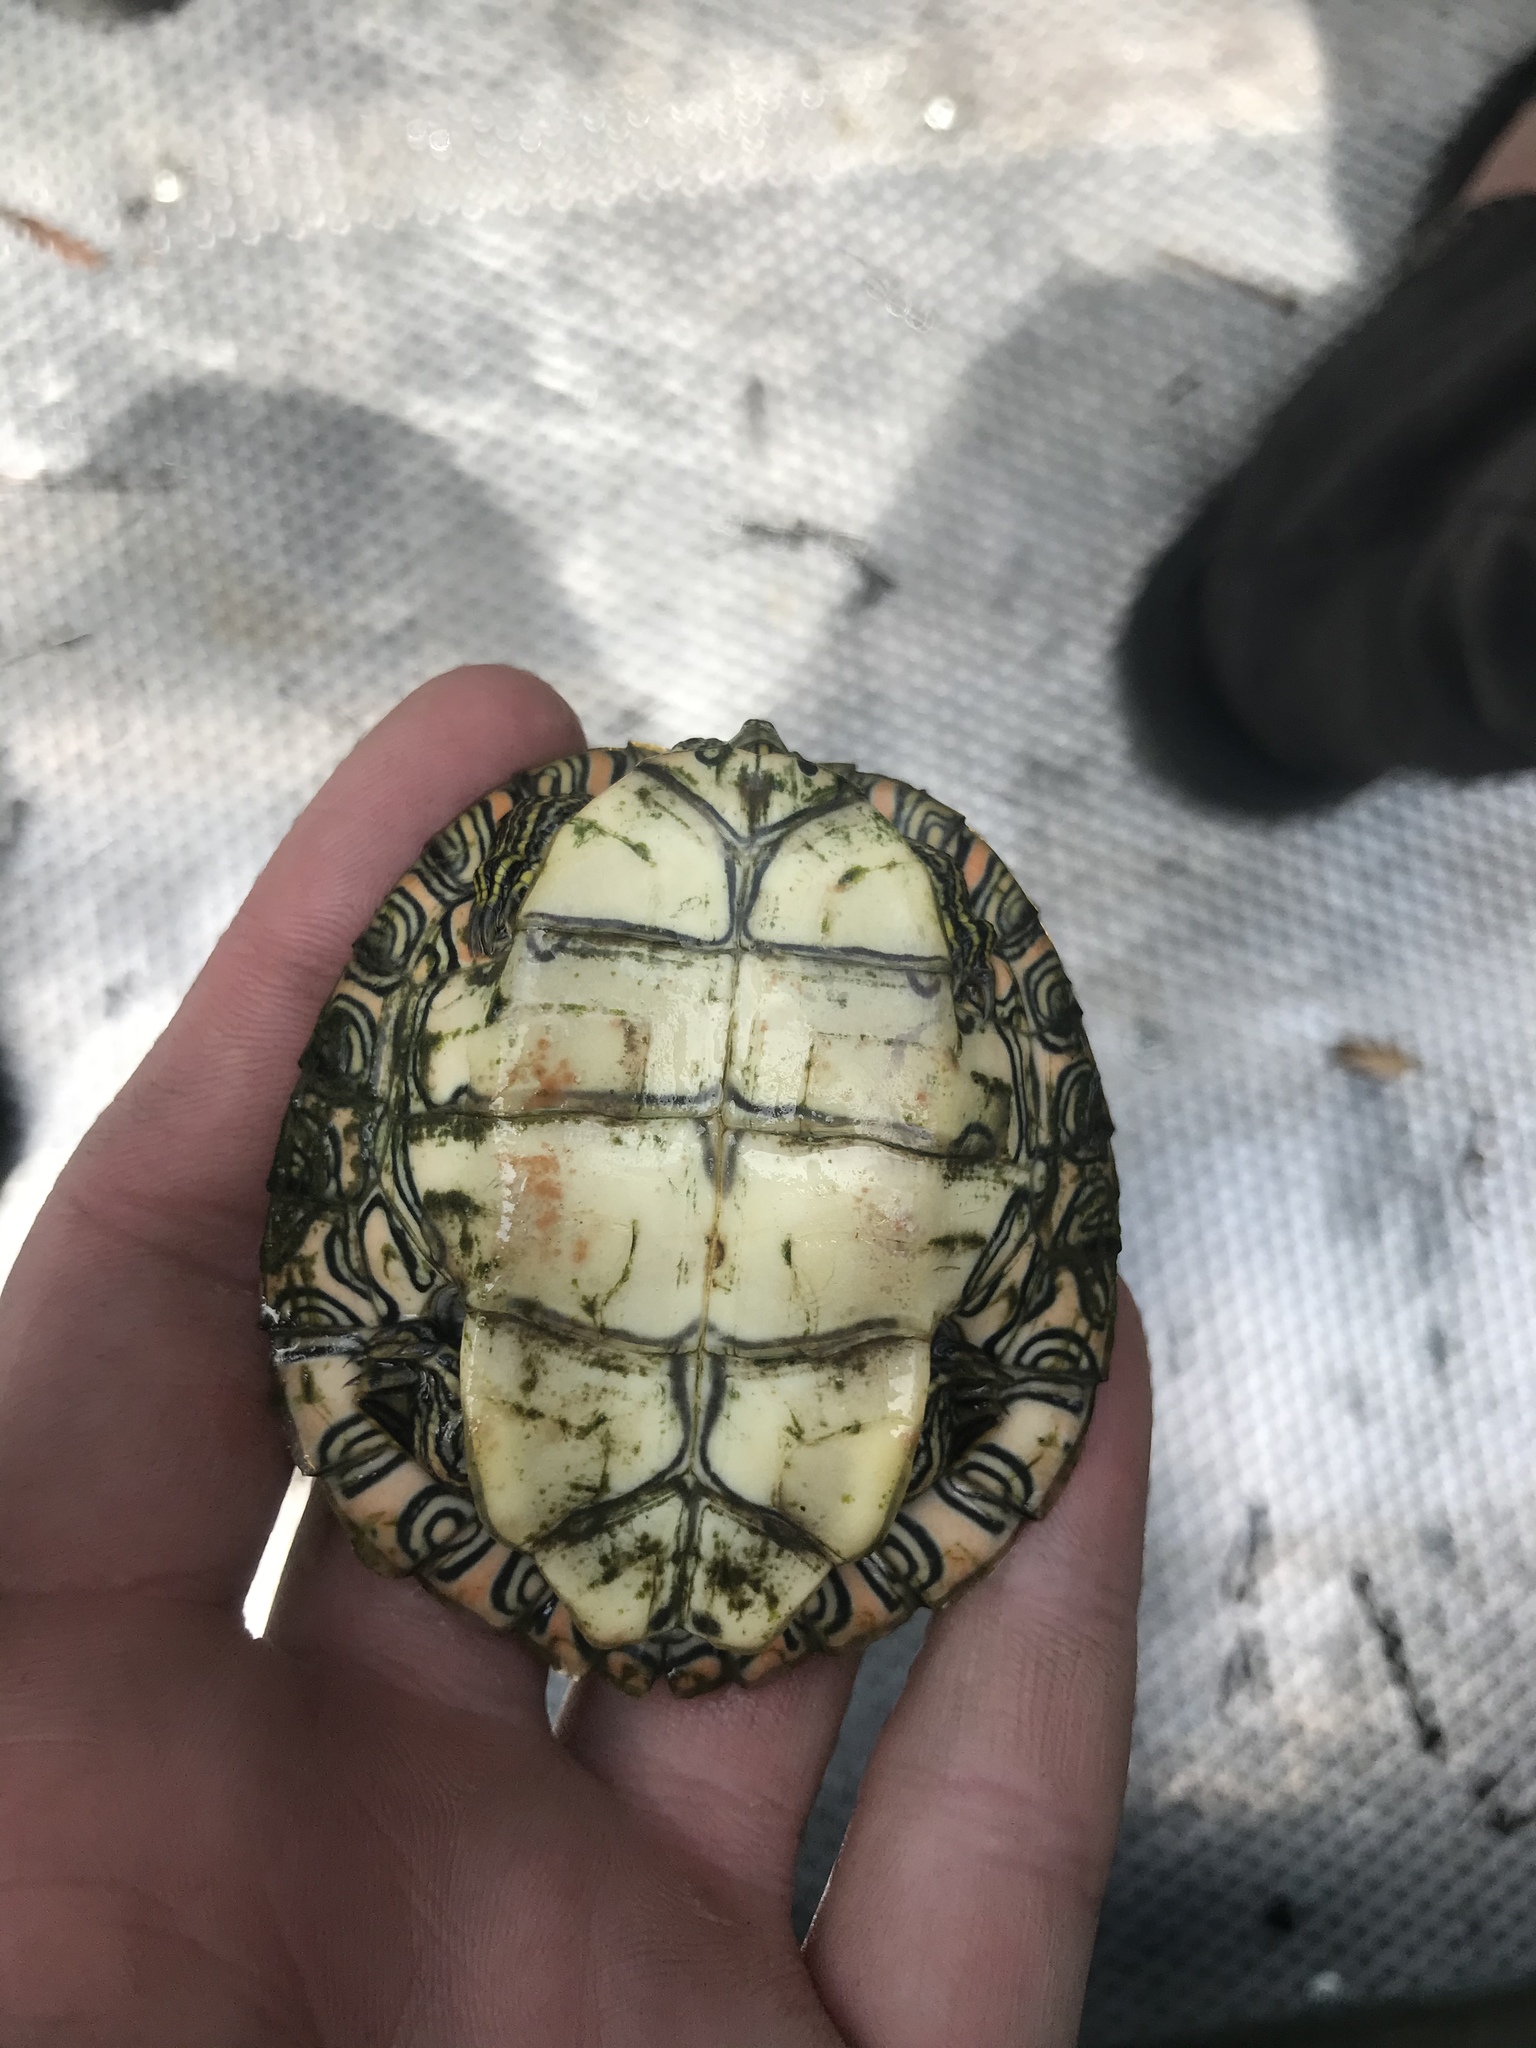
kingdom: Animalia
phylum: Chordata
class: Testudines
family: Emydidae
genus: Pseudemys
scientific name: Pseudemys texana
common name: Texas river cooter
